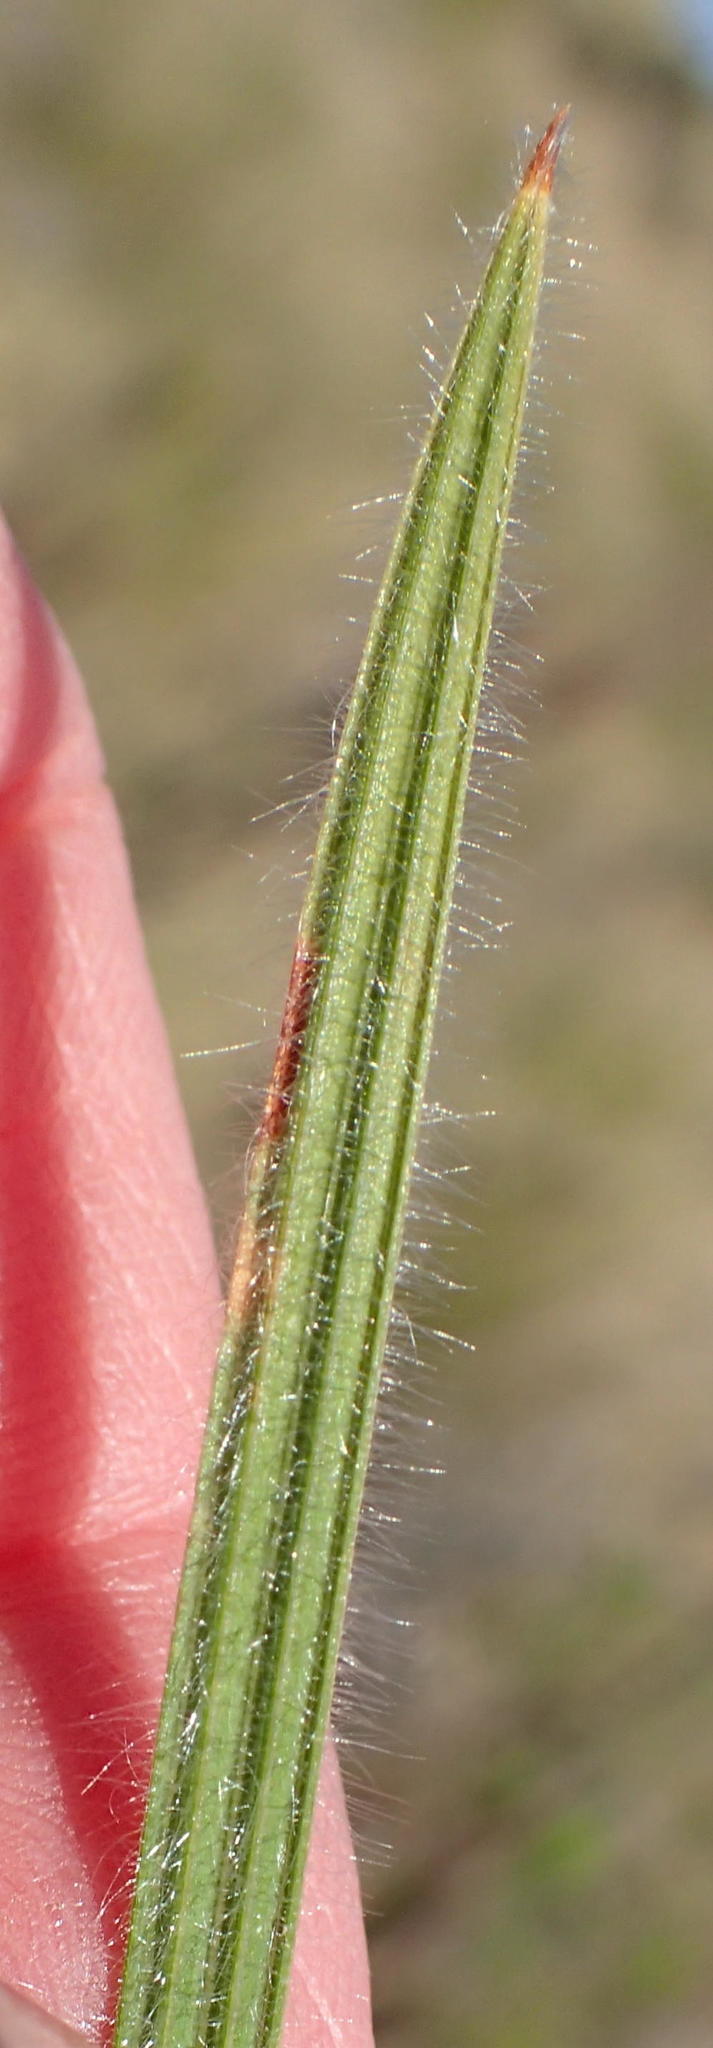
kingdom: Plantae
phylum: Tracheophyta
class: Liliopsida
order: Asparagales
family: Iridaceae
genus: Babiana
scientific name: Babiana sambucina
